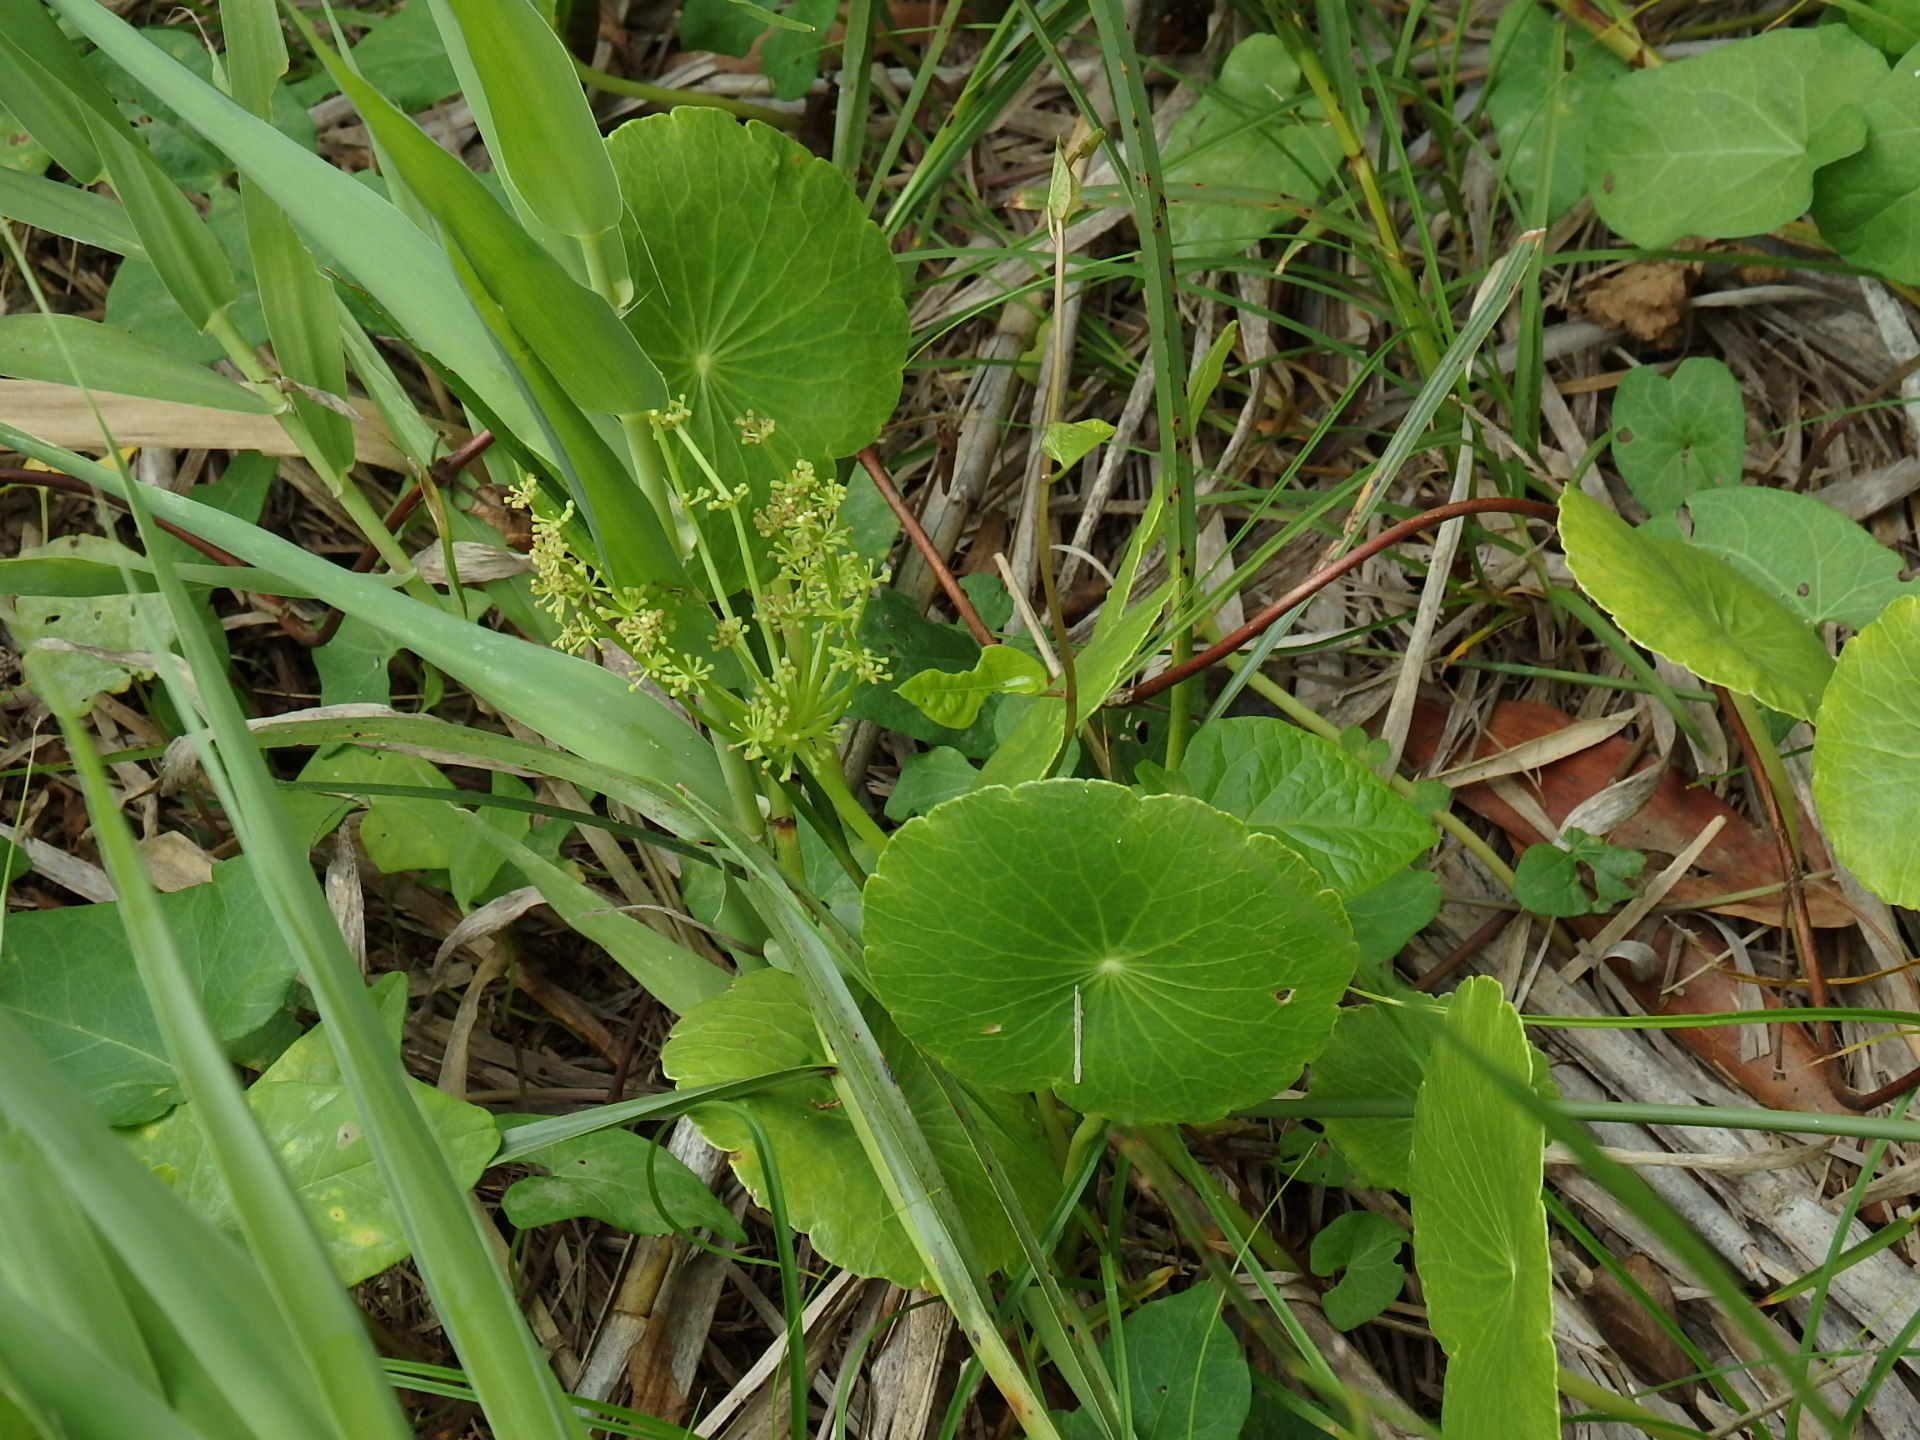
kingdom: Plantae
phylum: Tracheophyta
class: Magnoliopsida
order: Apiales
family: Araliaceae
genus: Hydrocotyle
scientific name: Hydrocotyle bonariensis
